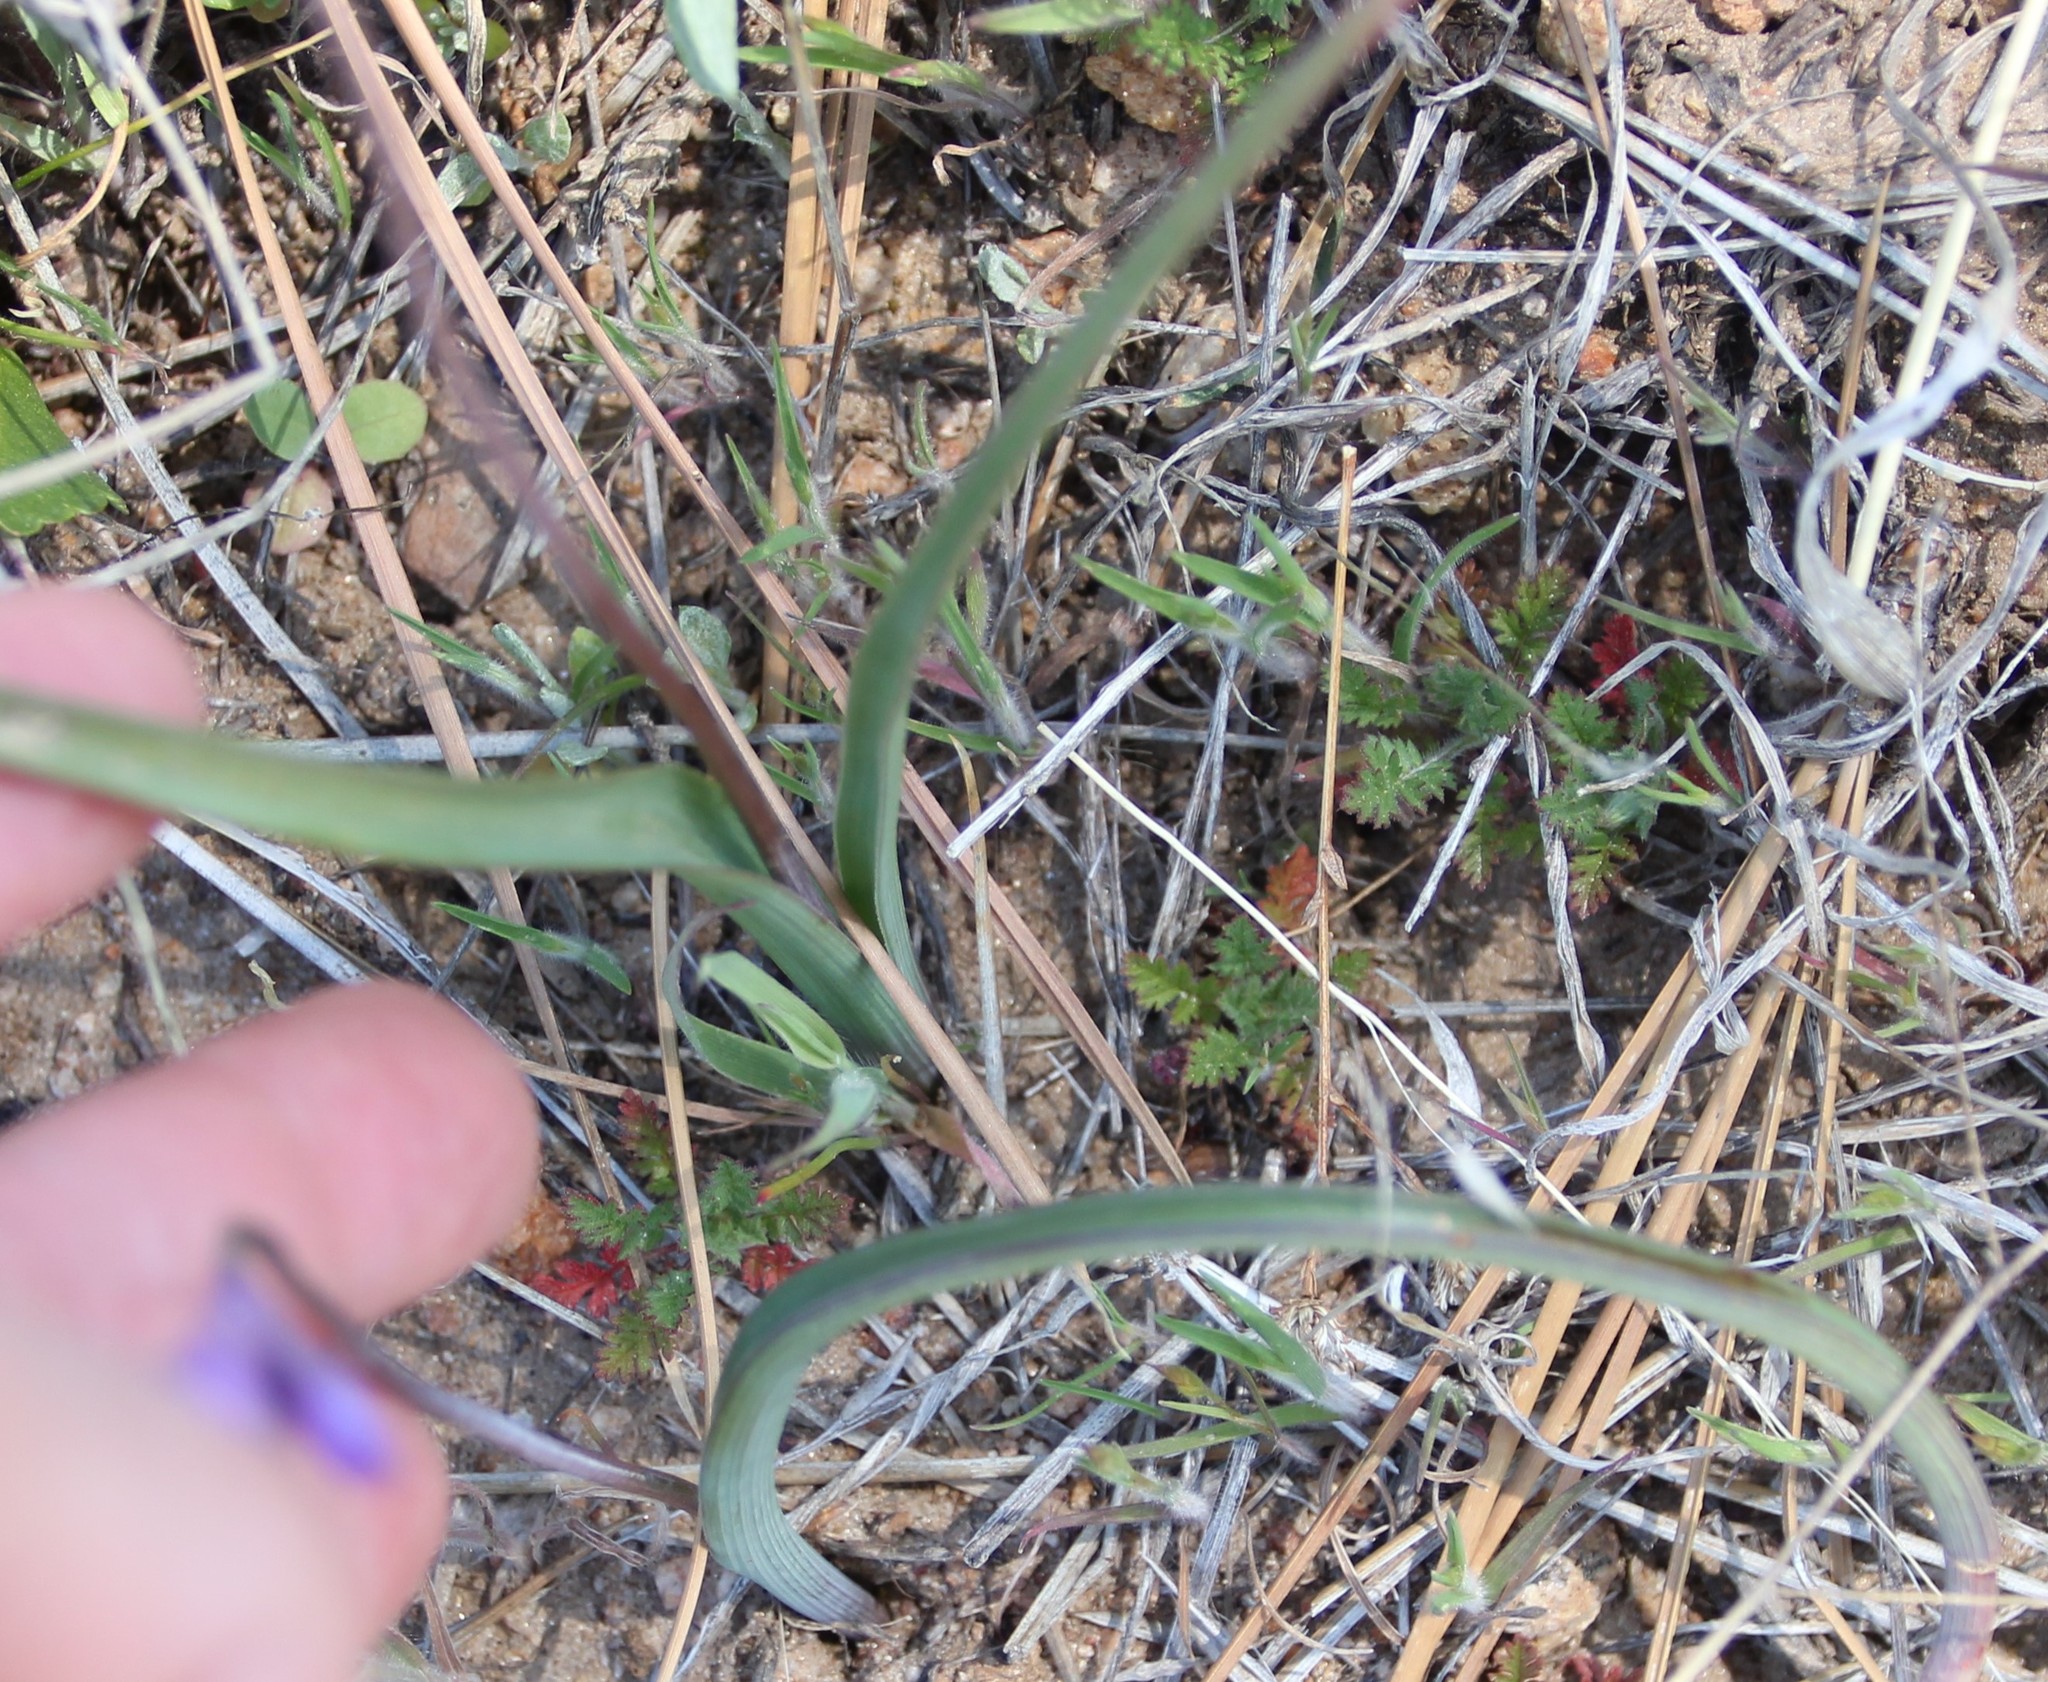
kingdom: Plantae
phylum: Tracheophyta
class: Liliopsida
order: Asparagales
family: Asparagaceae
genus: Dipterostemon
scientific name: Dipterostemon capitatus
